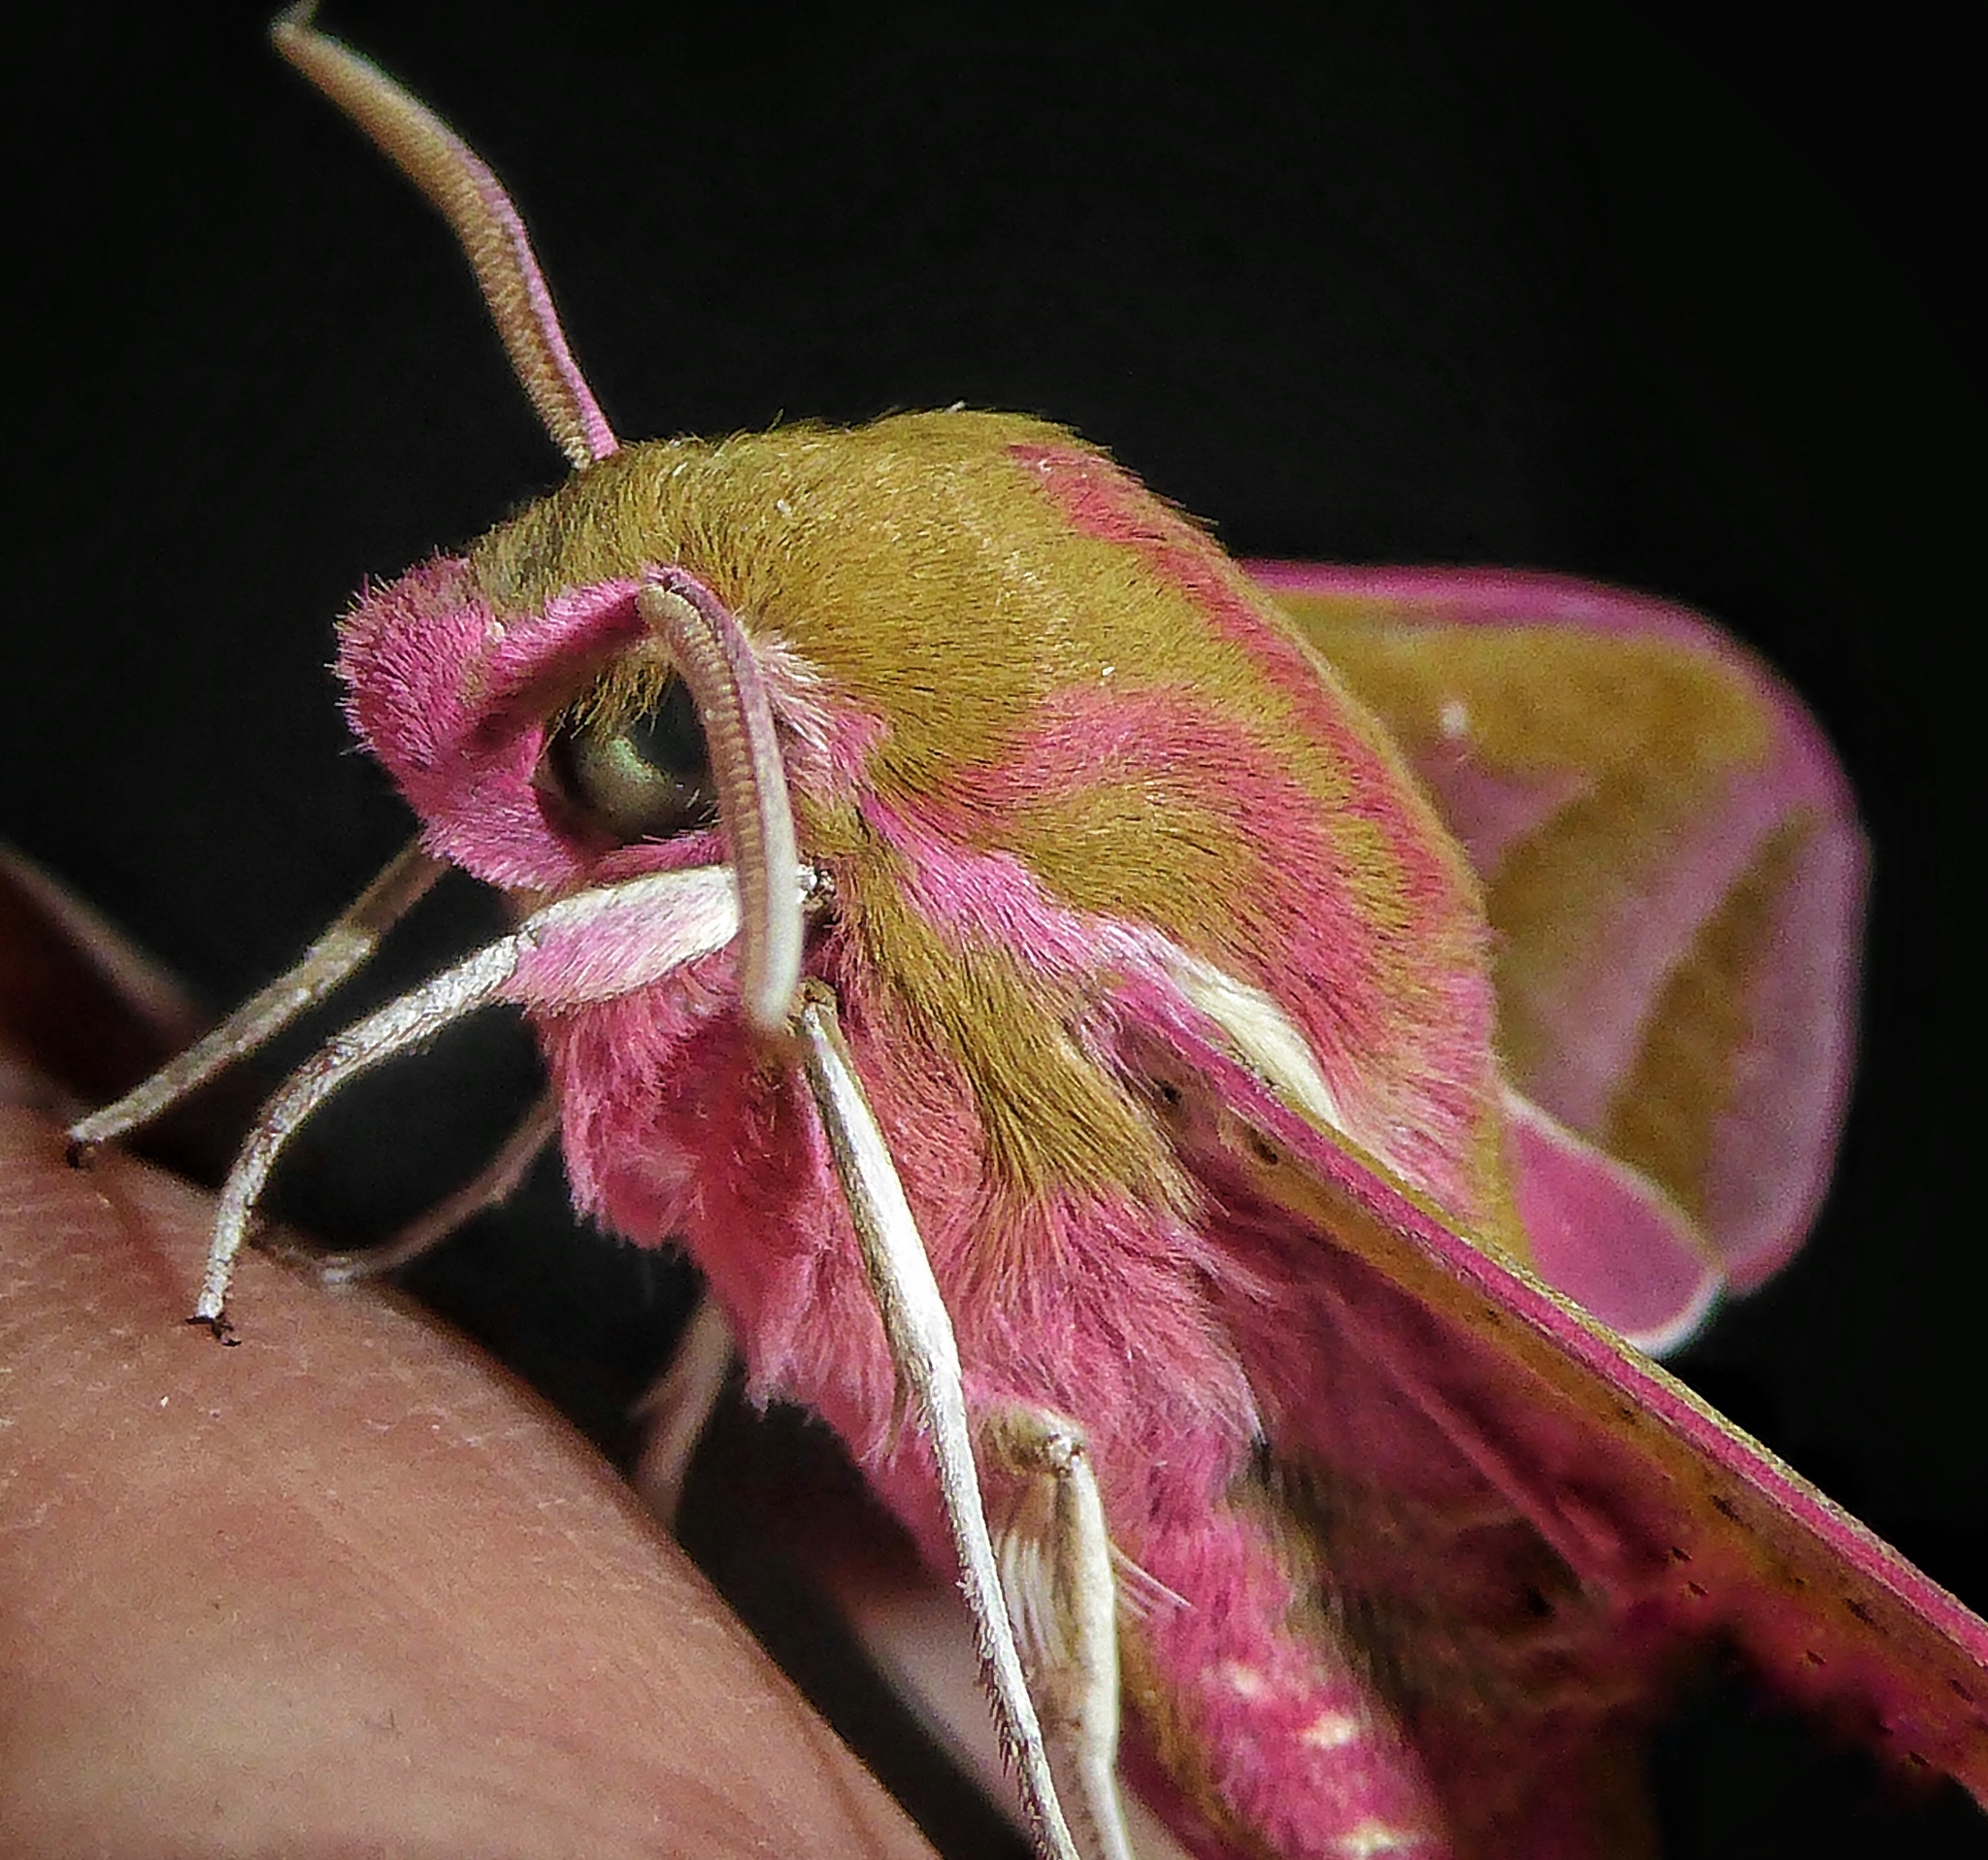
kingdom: Animalia
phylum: Arthropoda
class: Insecta
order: Lepidoptera
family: Sphingidae
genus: Deilephila
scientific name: Deilephila elpenor
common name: Elephant hawk-moth
